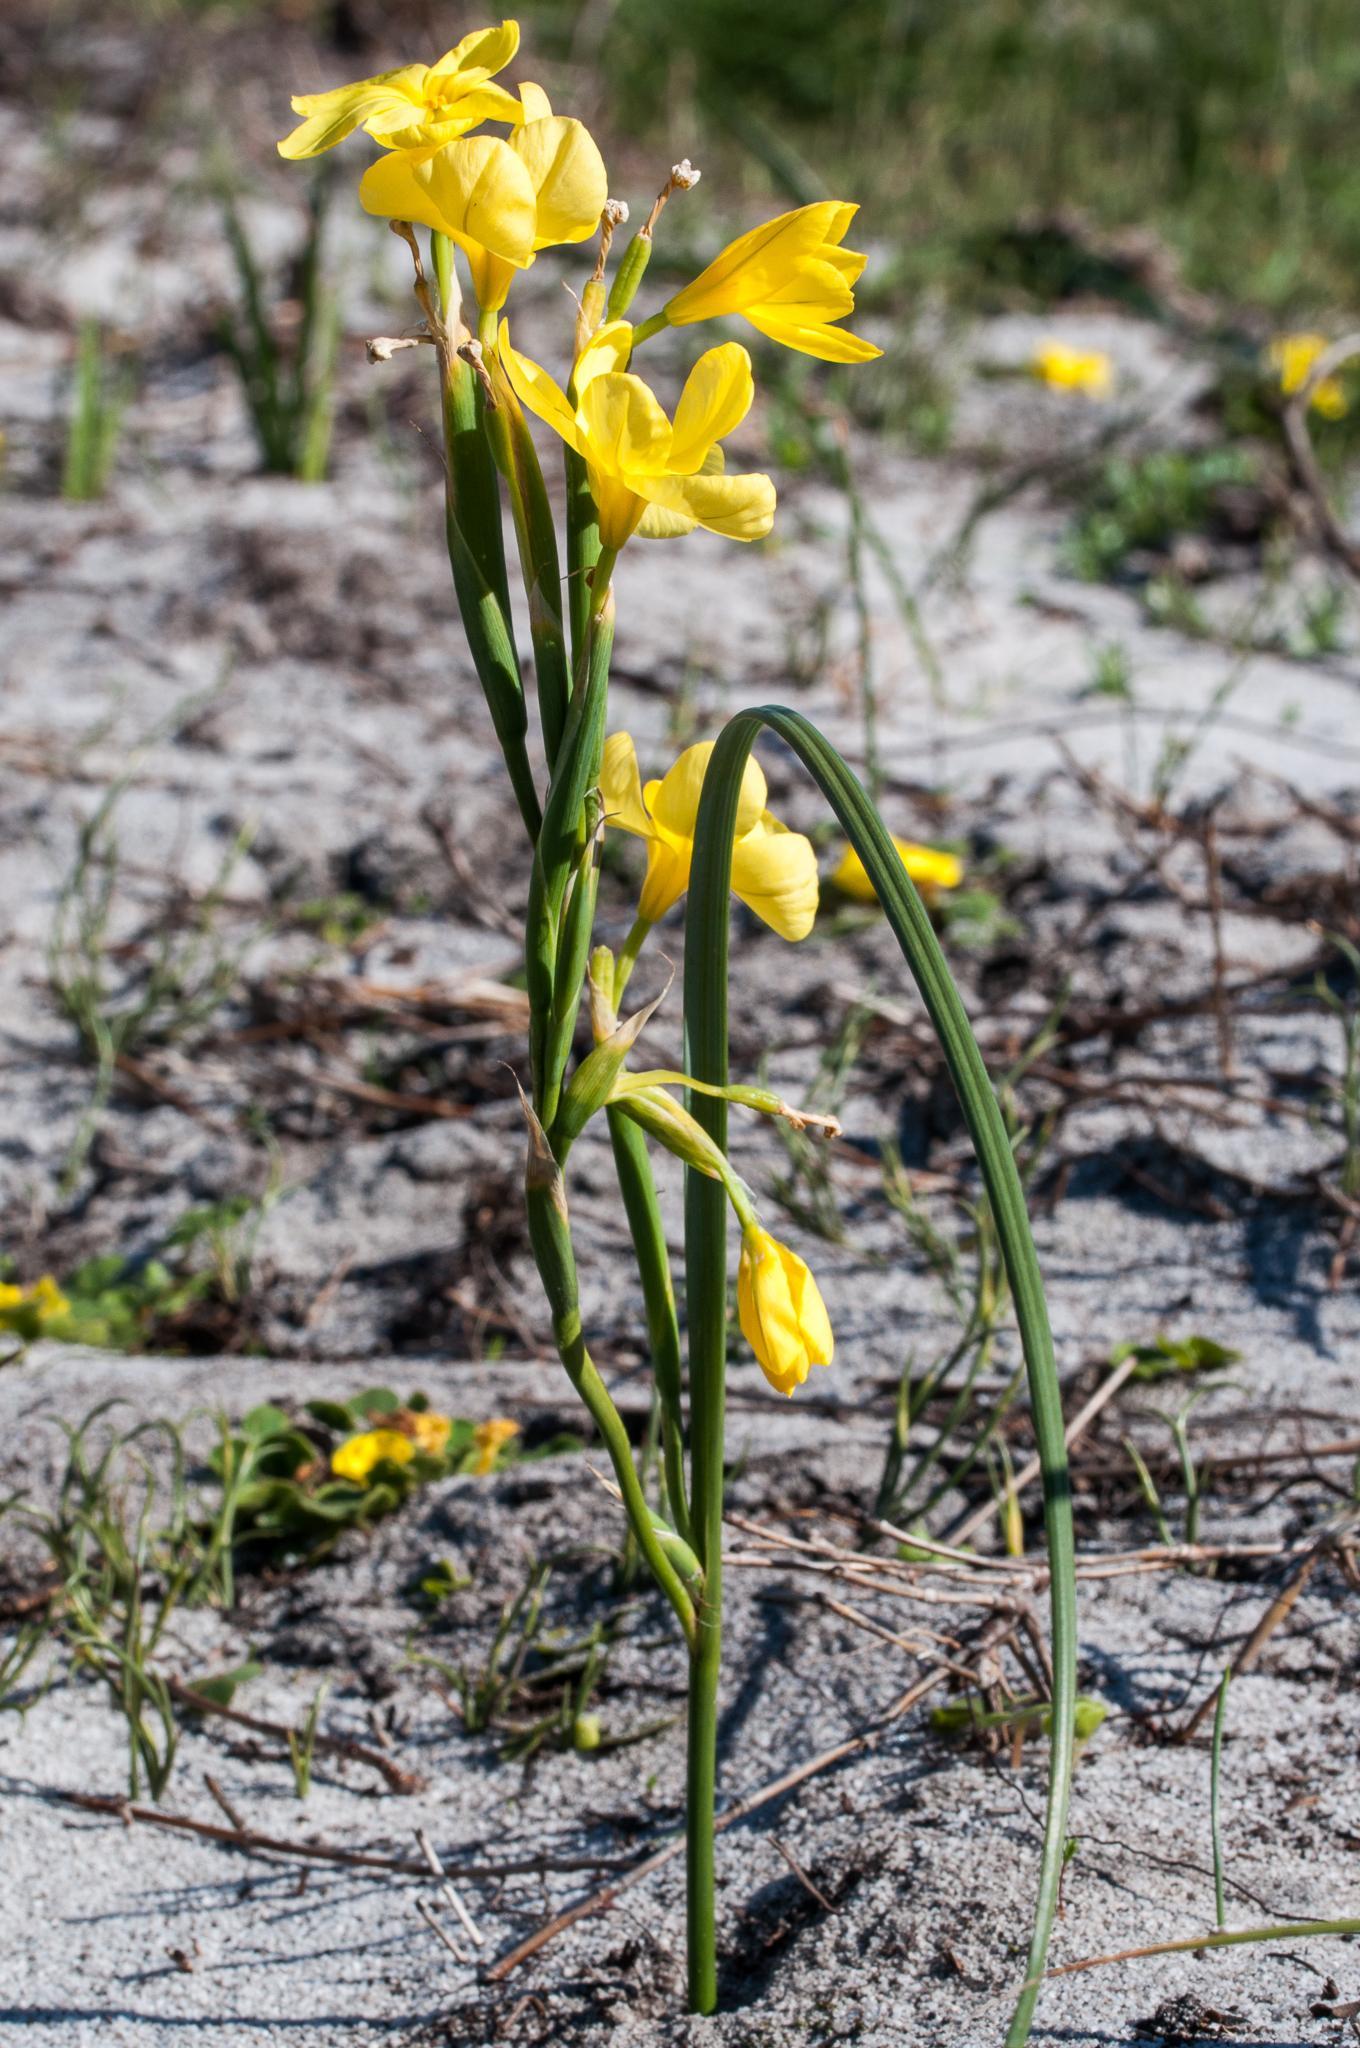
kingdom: Plantae
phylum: Tracheophyta
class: Liliopsida
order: Asparagales
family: Iridaceae
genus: Moraea
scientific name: Moraea collina
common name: Cape-tulip
